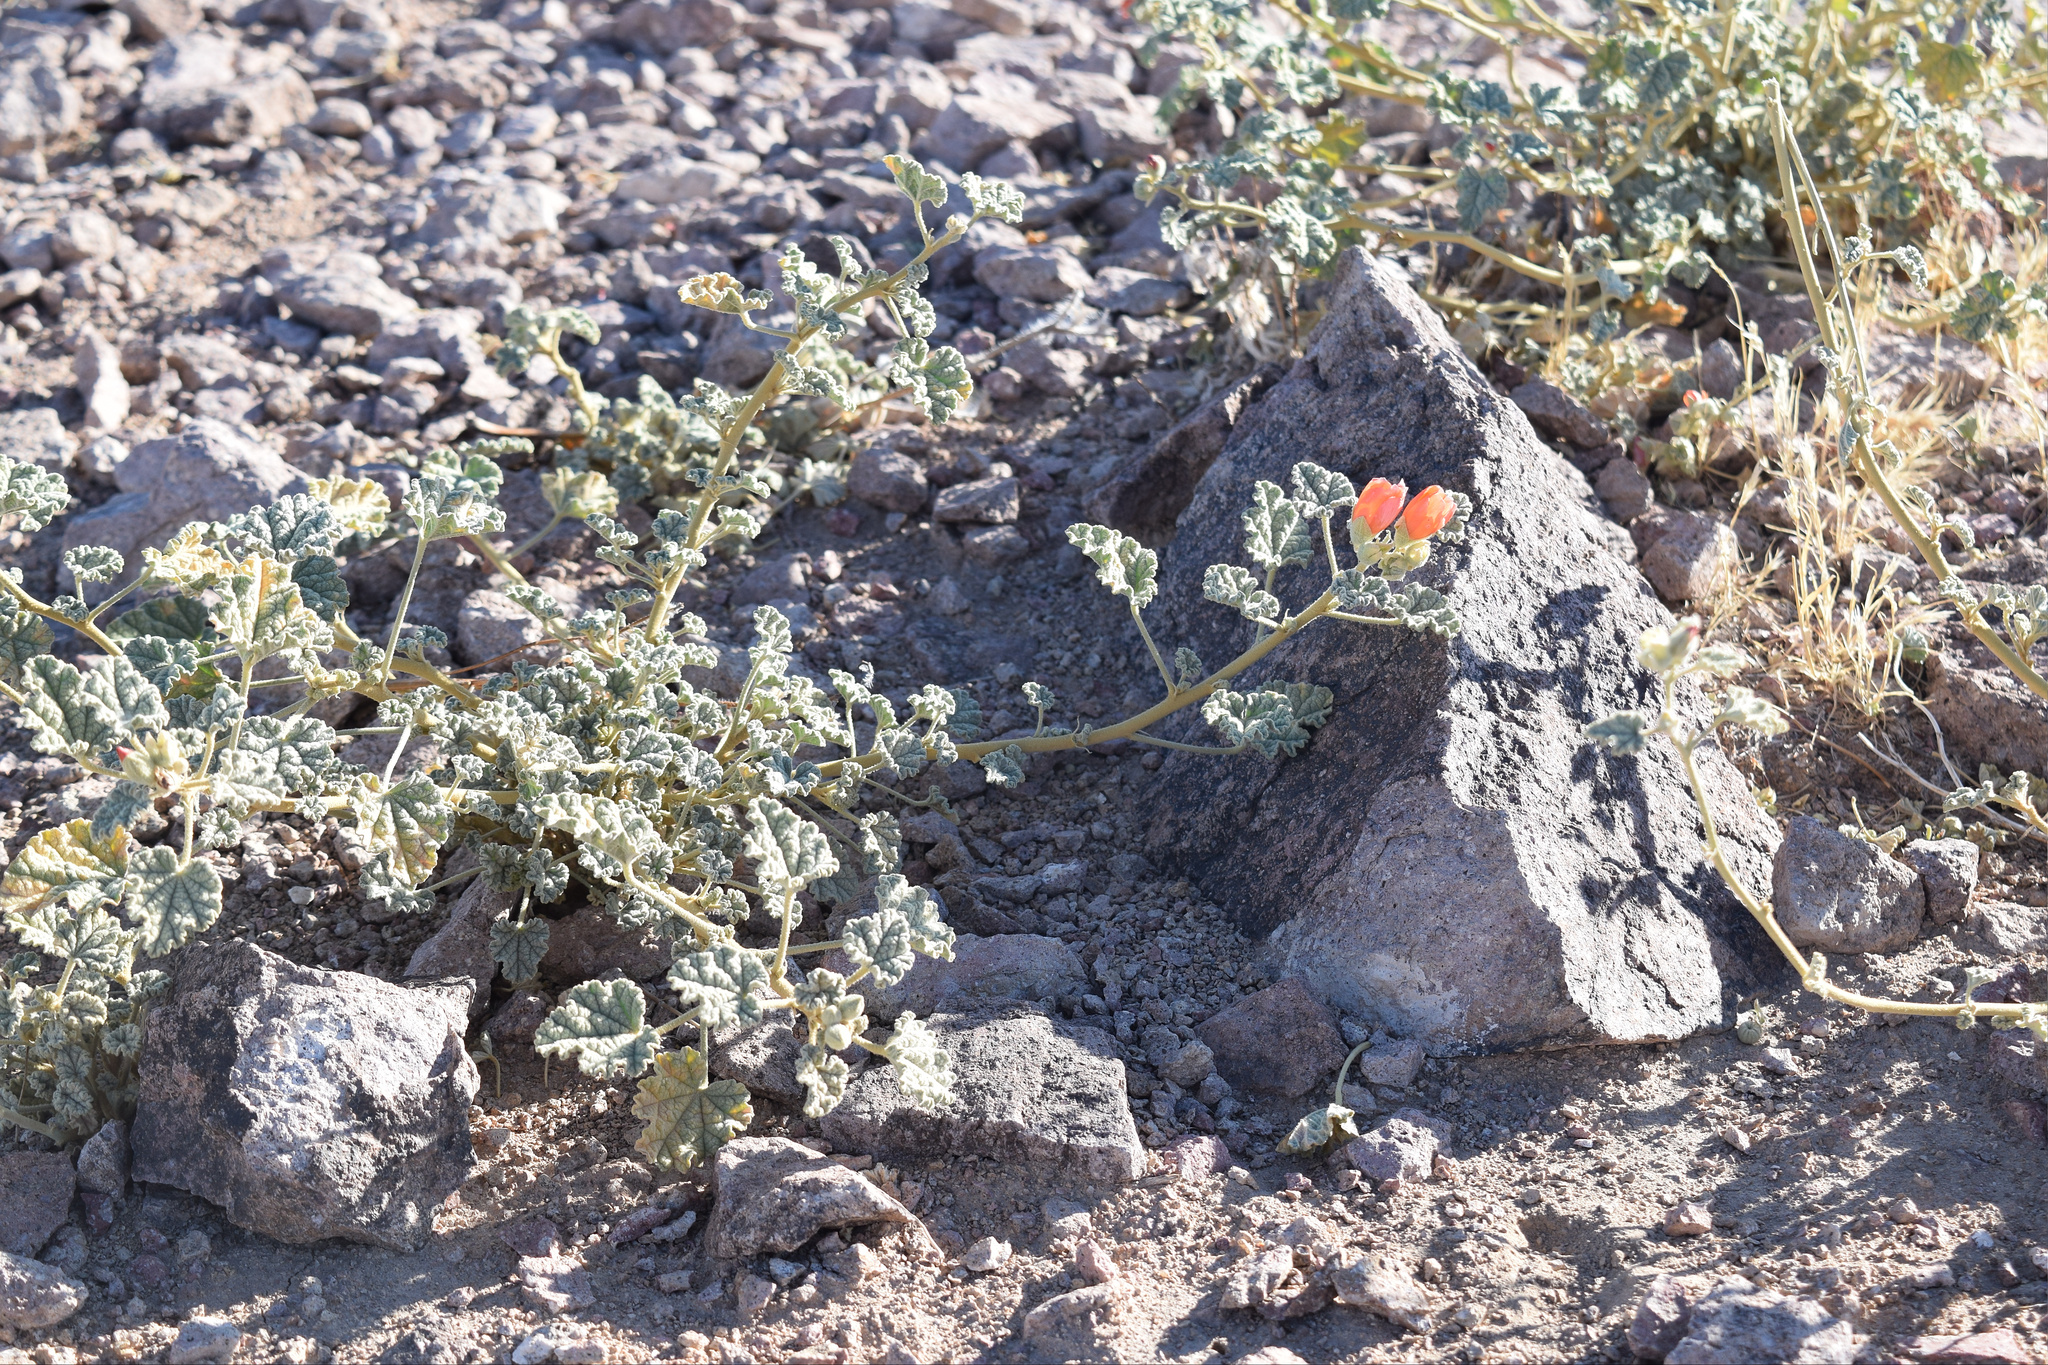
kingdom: Plantae
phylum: Tracheophyta
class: Magnoliopsida
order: Malvales
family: Malvaceae
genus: Sphaeralcea
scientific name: Sphaeralcea ambigua
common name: Apricot globe-mallow
